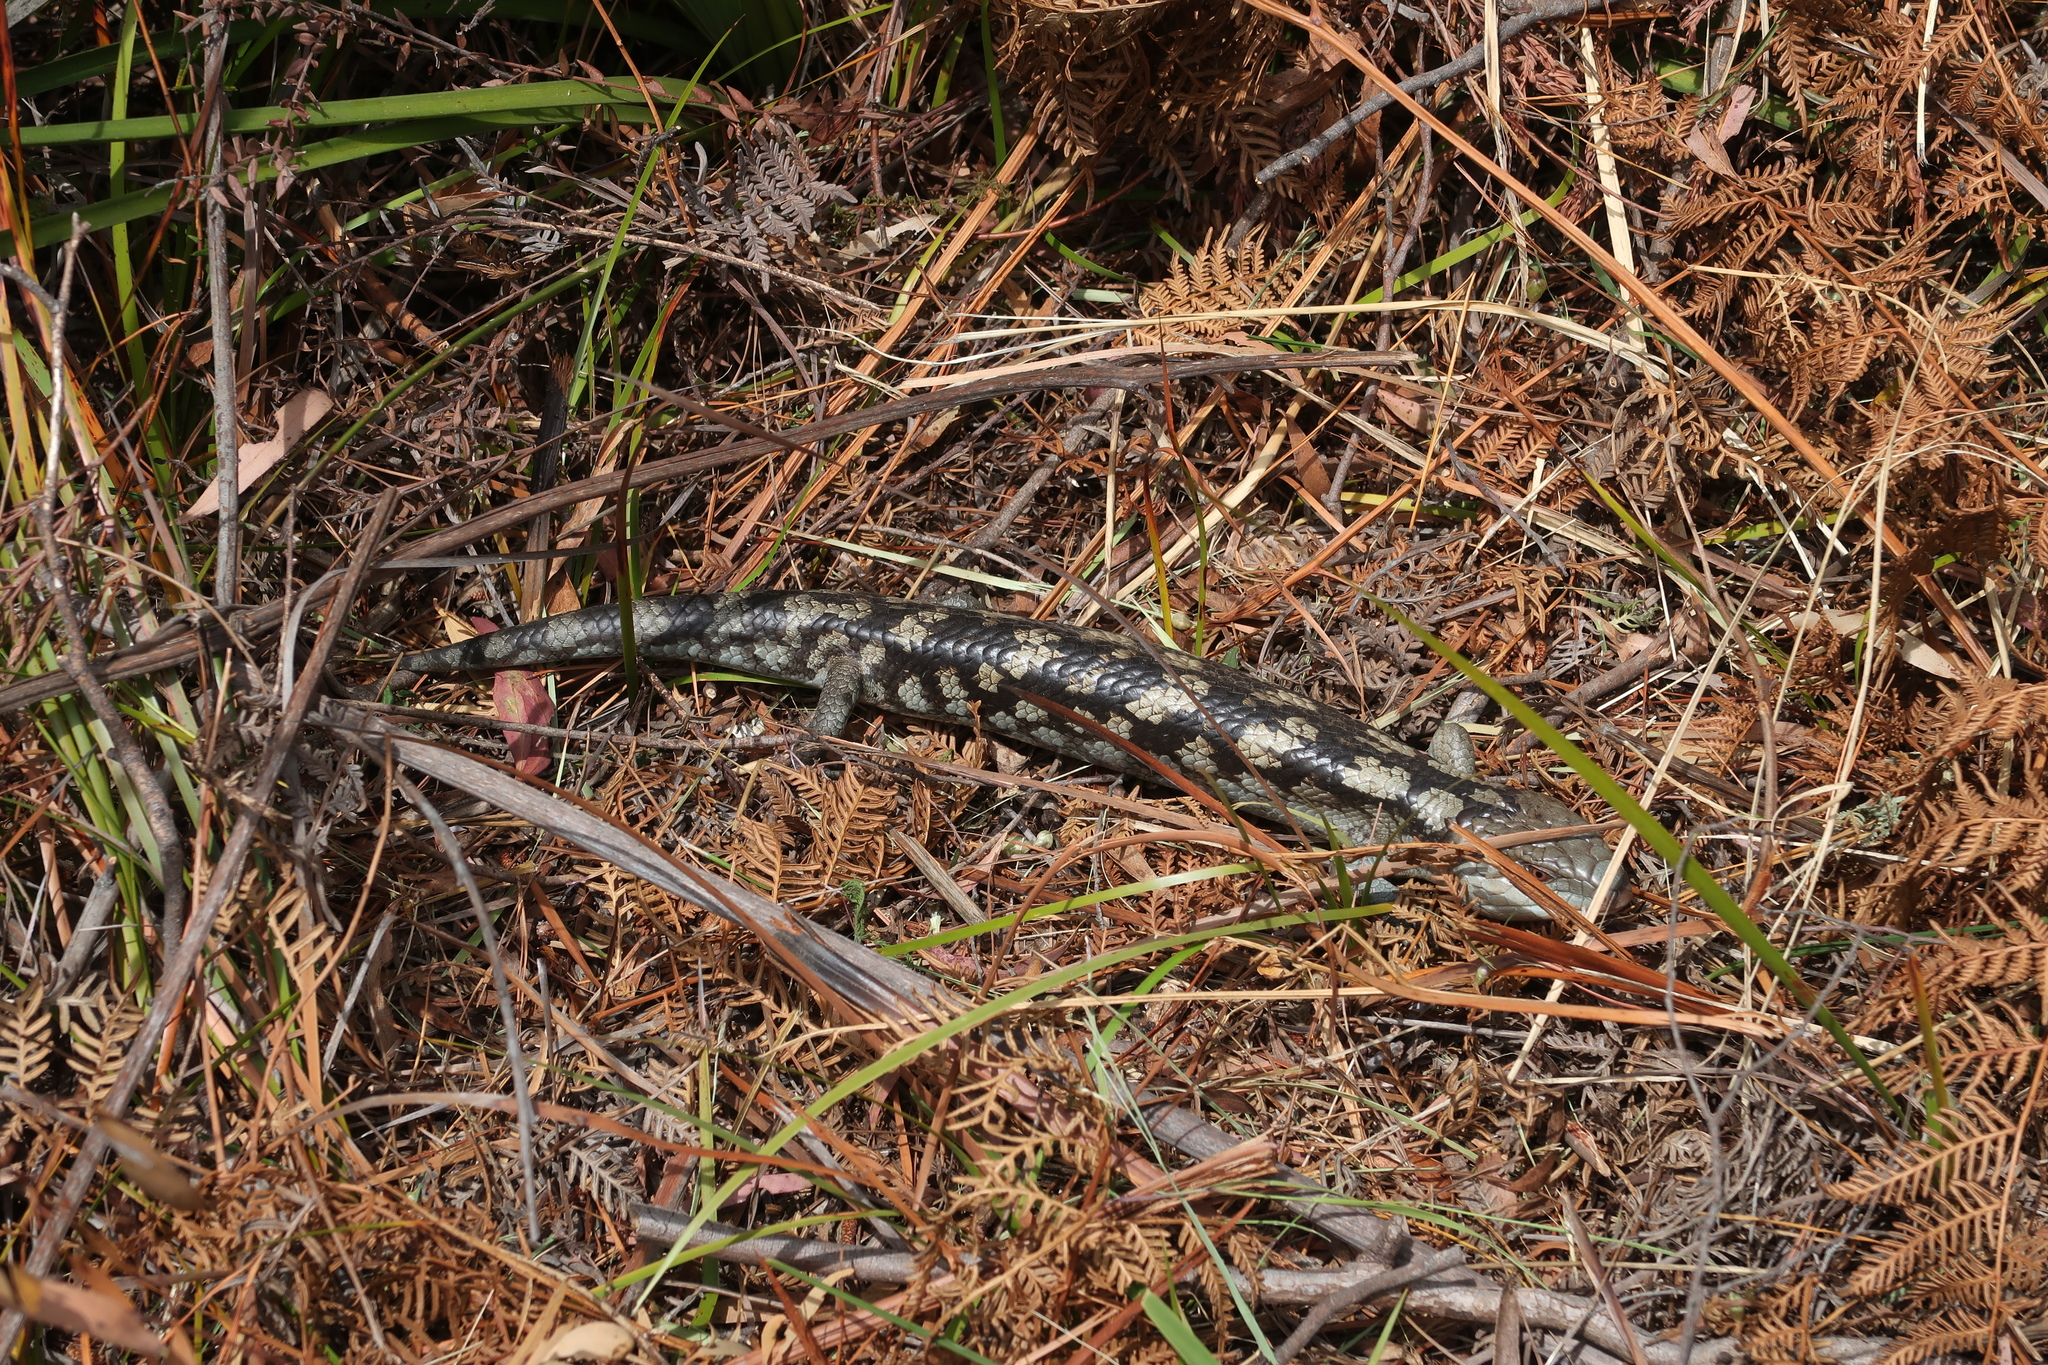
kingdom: Animalia
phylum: Chordata
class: Squamata
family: Scincidae
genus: Tiliqua
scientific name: Tiliqua nigrolutea
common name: Blotched blue-tongued lizard
